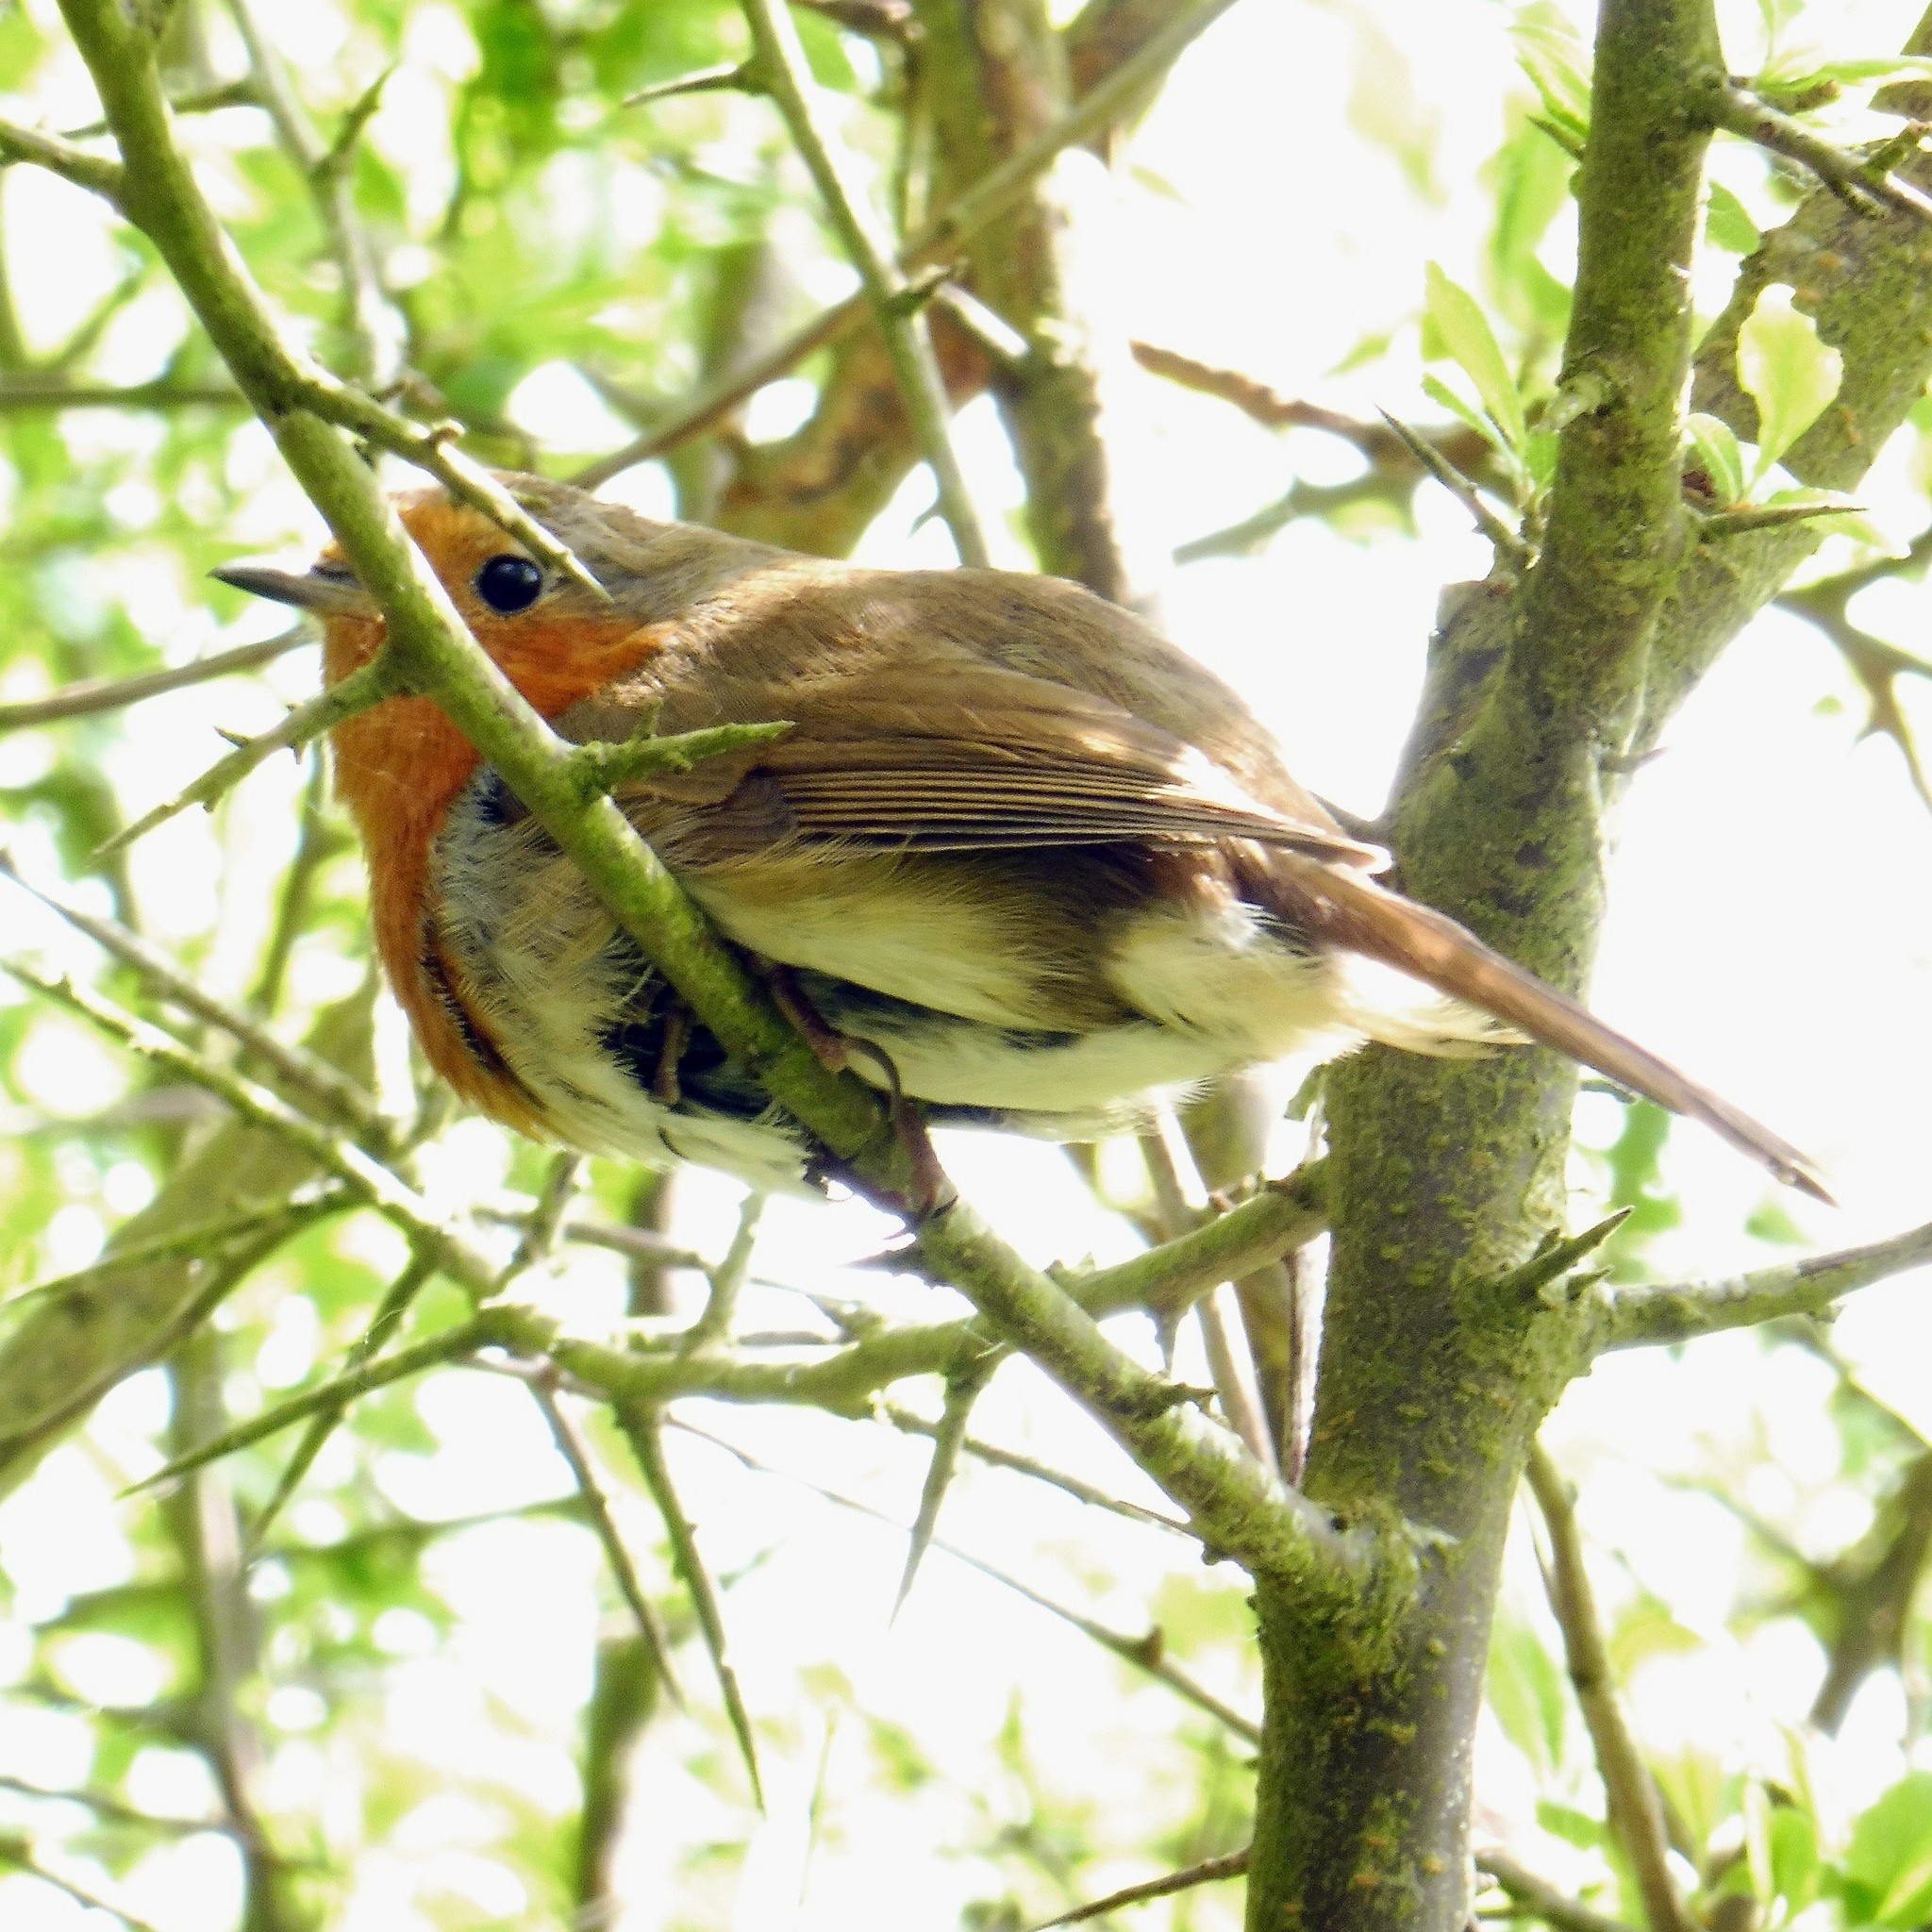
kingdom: Animalia
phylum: Chordata
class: Aves
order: Passeriformes
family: Muscicapidae
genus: Erithacus
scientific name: Erithacus rubecula
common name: European robin
